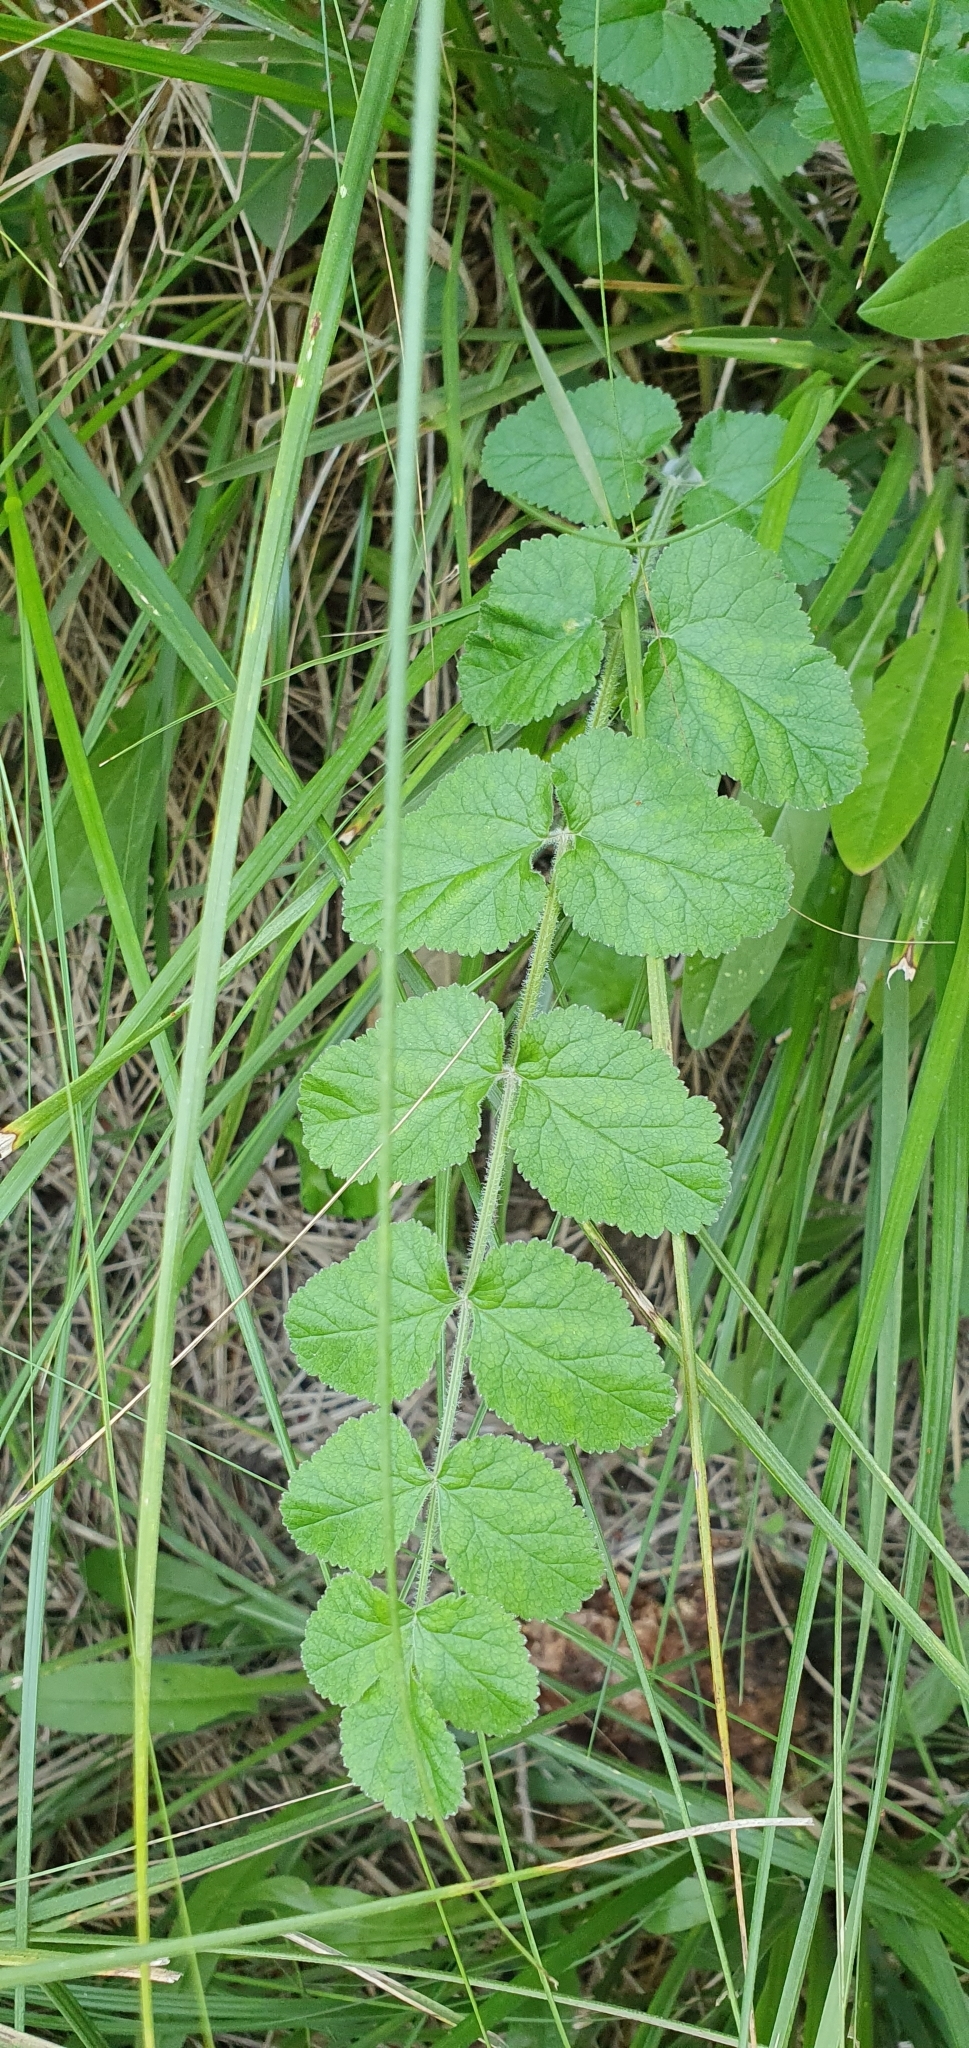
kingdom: Plantae
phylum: Tracheophyta
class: Magnoliopsida
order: Apiales
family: Apiaceae
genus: Pimpinella
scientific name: Pimpinella lutea
